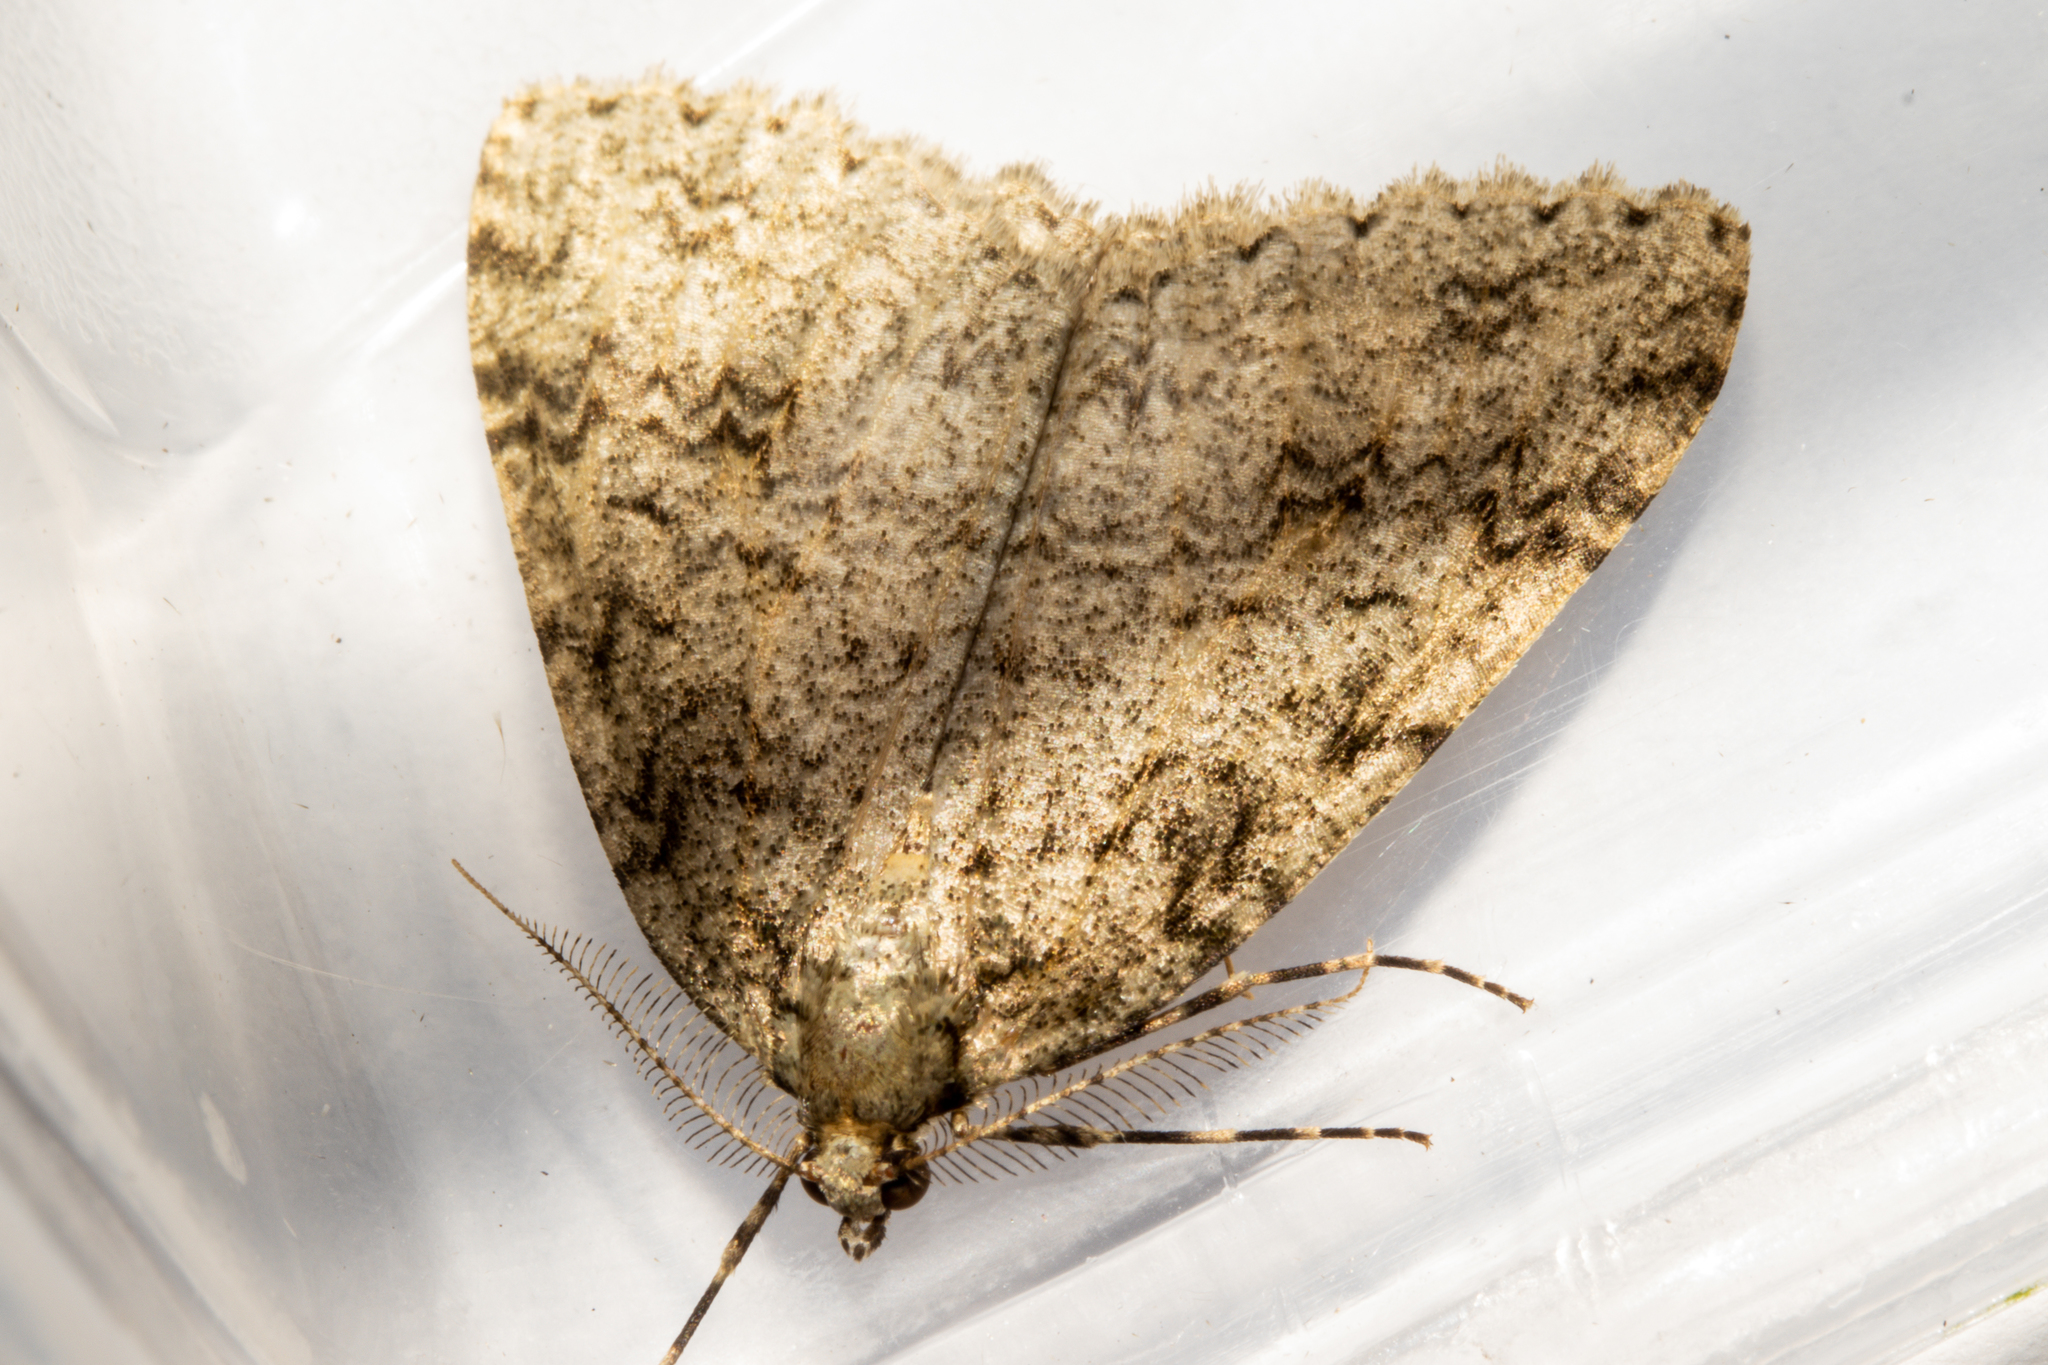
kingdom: Animalia
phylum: Arthropoda
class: Insecta
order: Lepidoptera
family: Geometridae
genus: Pseudocoremia
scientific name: Pseudocoremia rudisata
